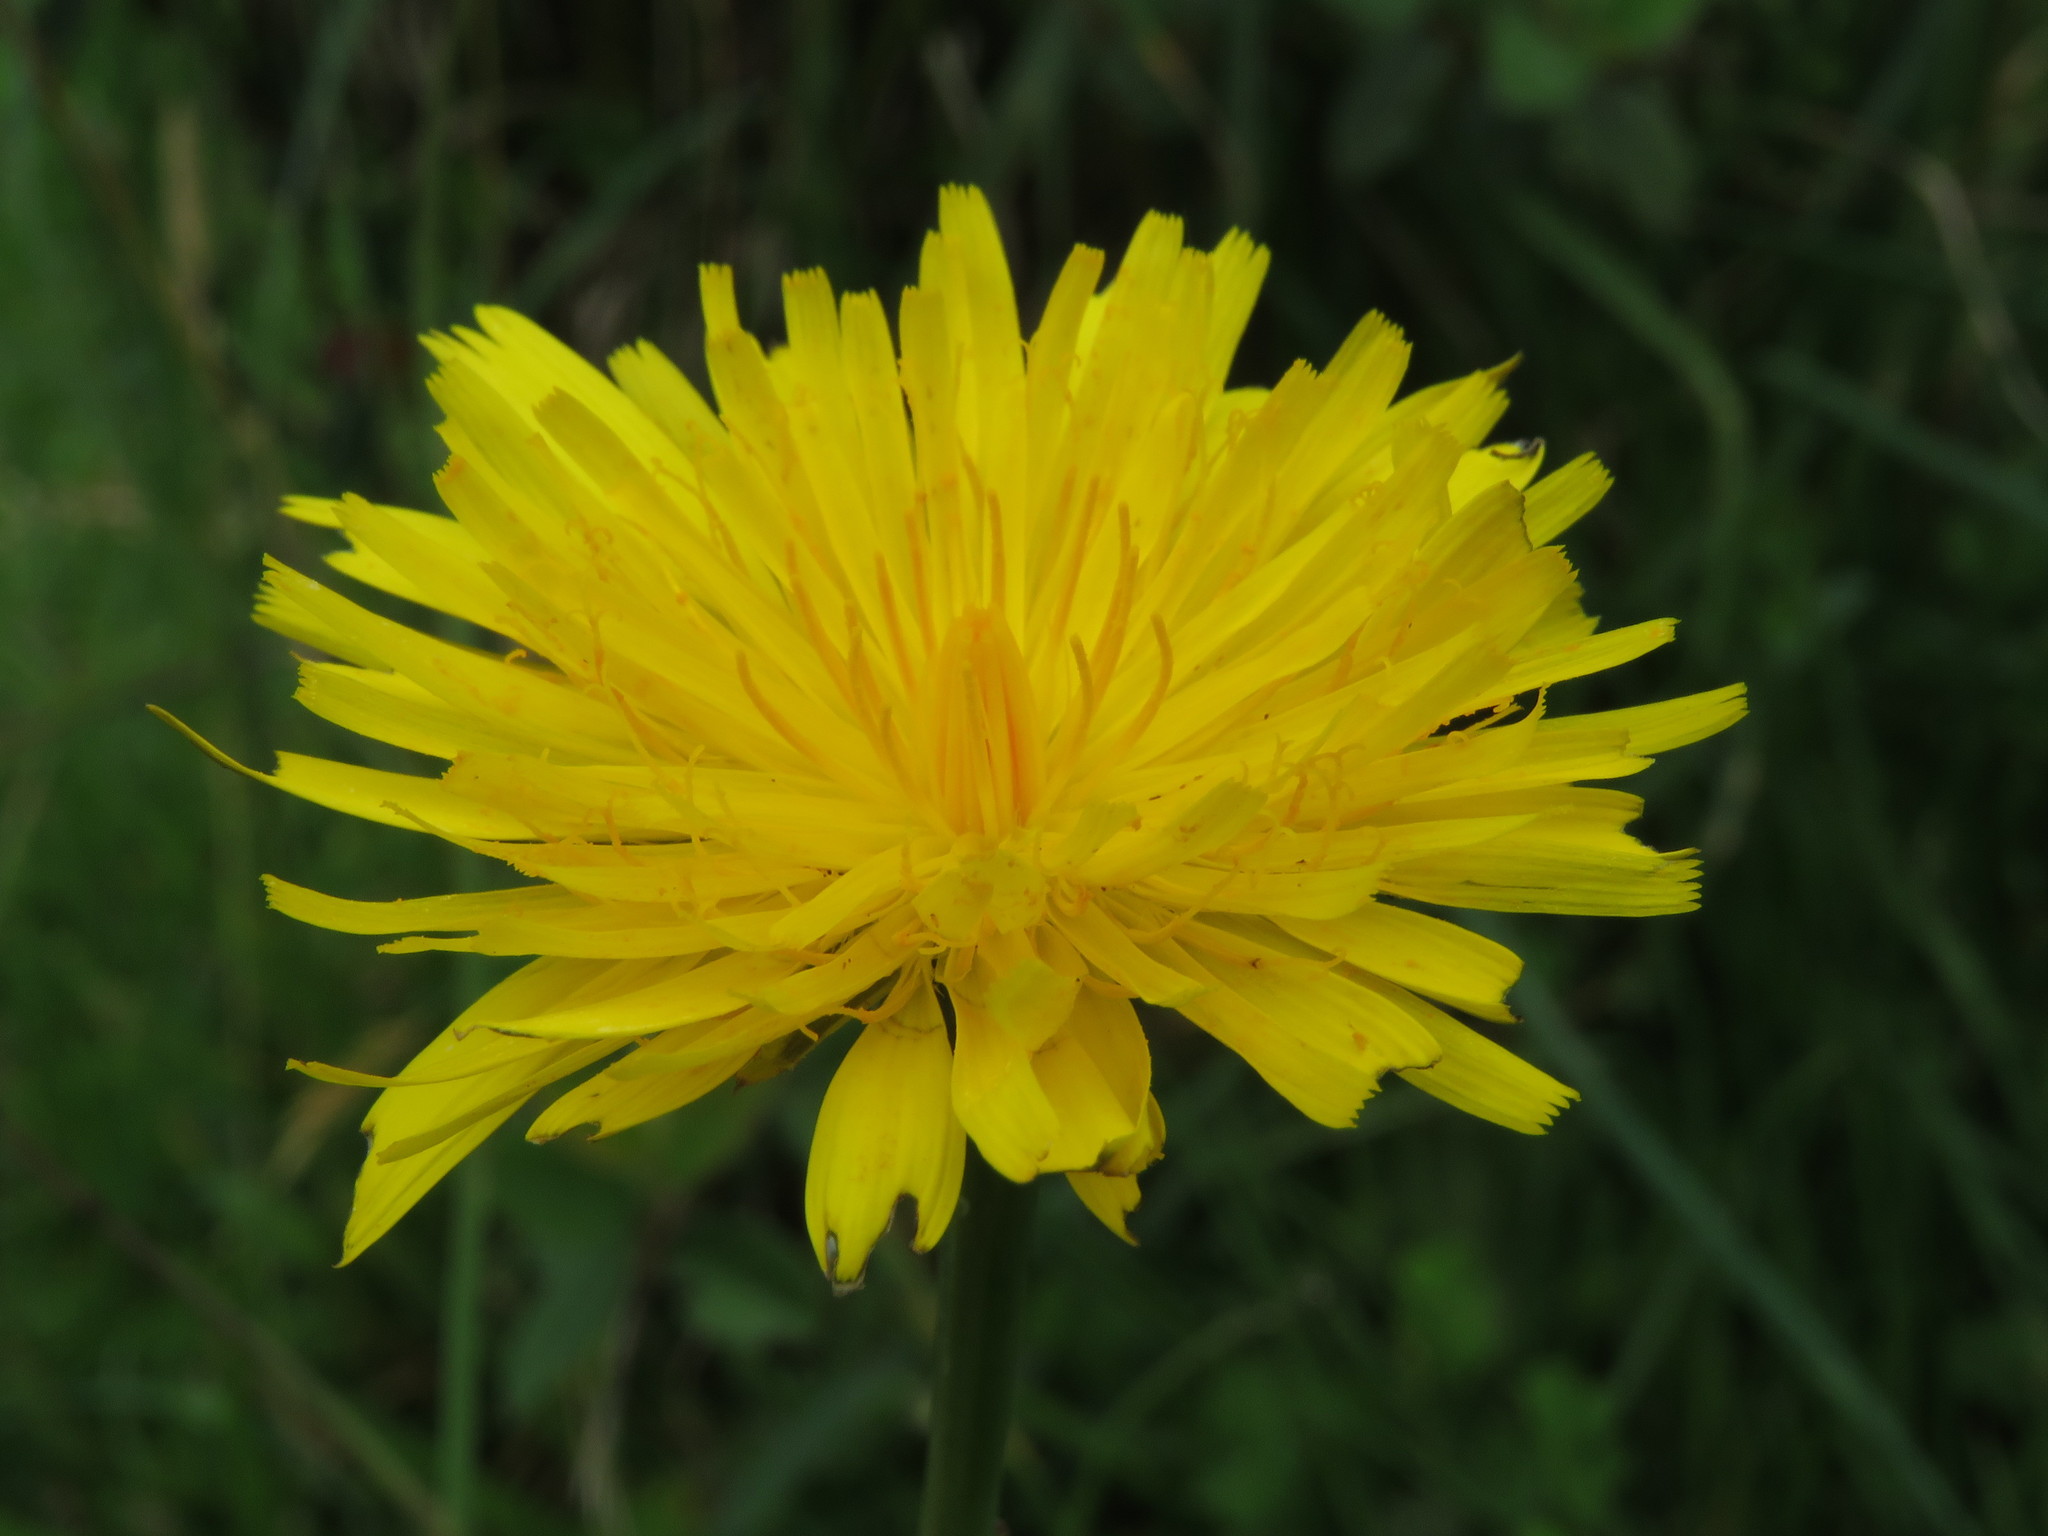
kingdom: Plantae
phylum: Tracheophyta
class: Magnoliopsida
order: Asterales
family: Asteraceae
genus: Hypochaeris
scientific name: Hypochaeris radicata
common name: Flatweed
